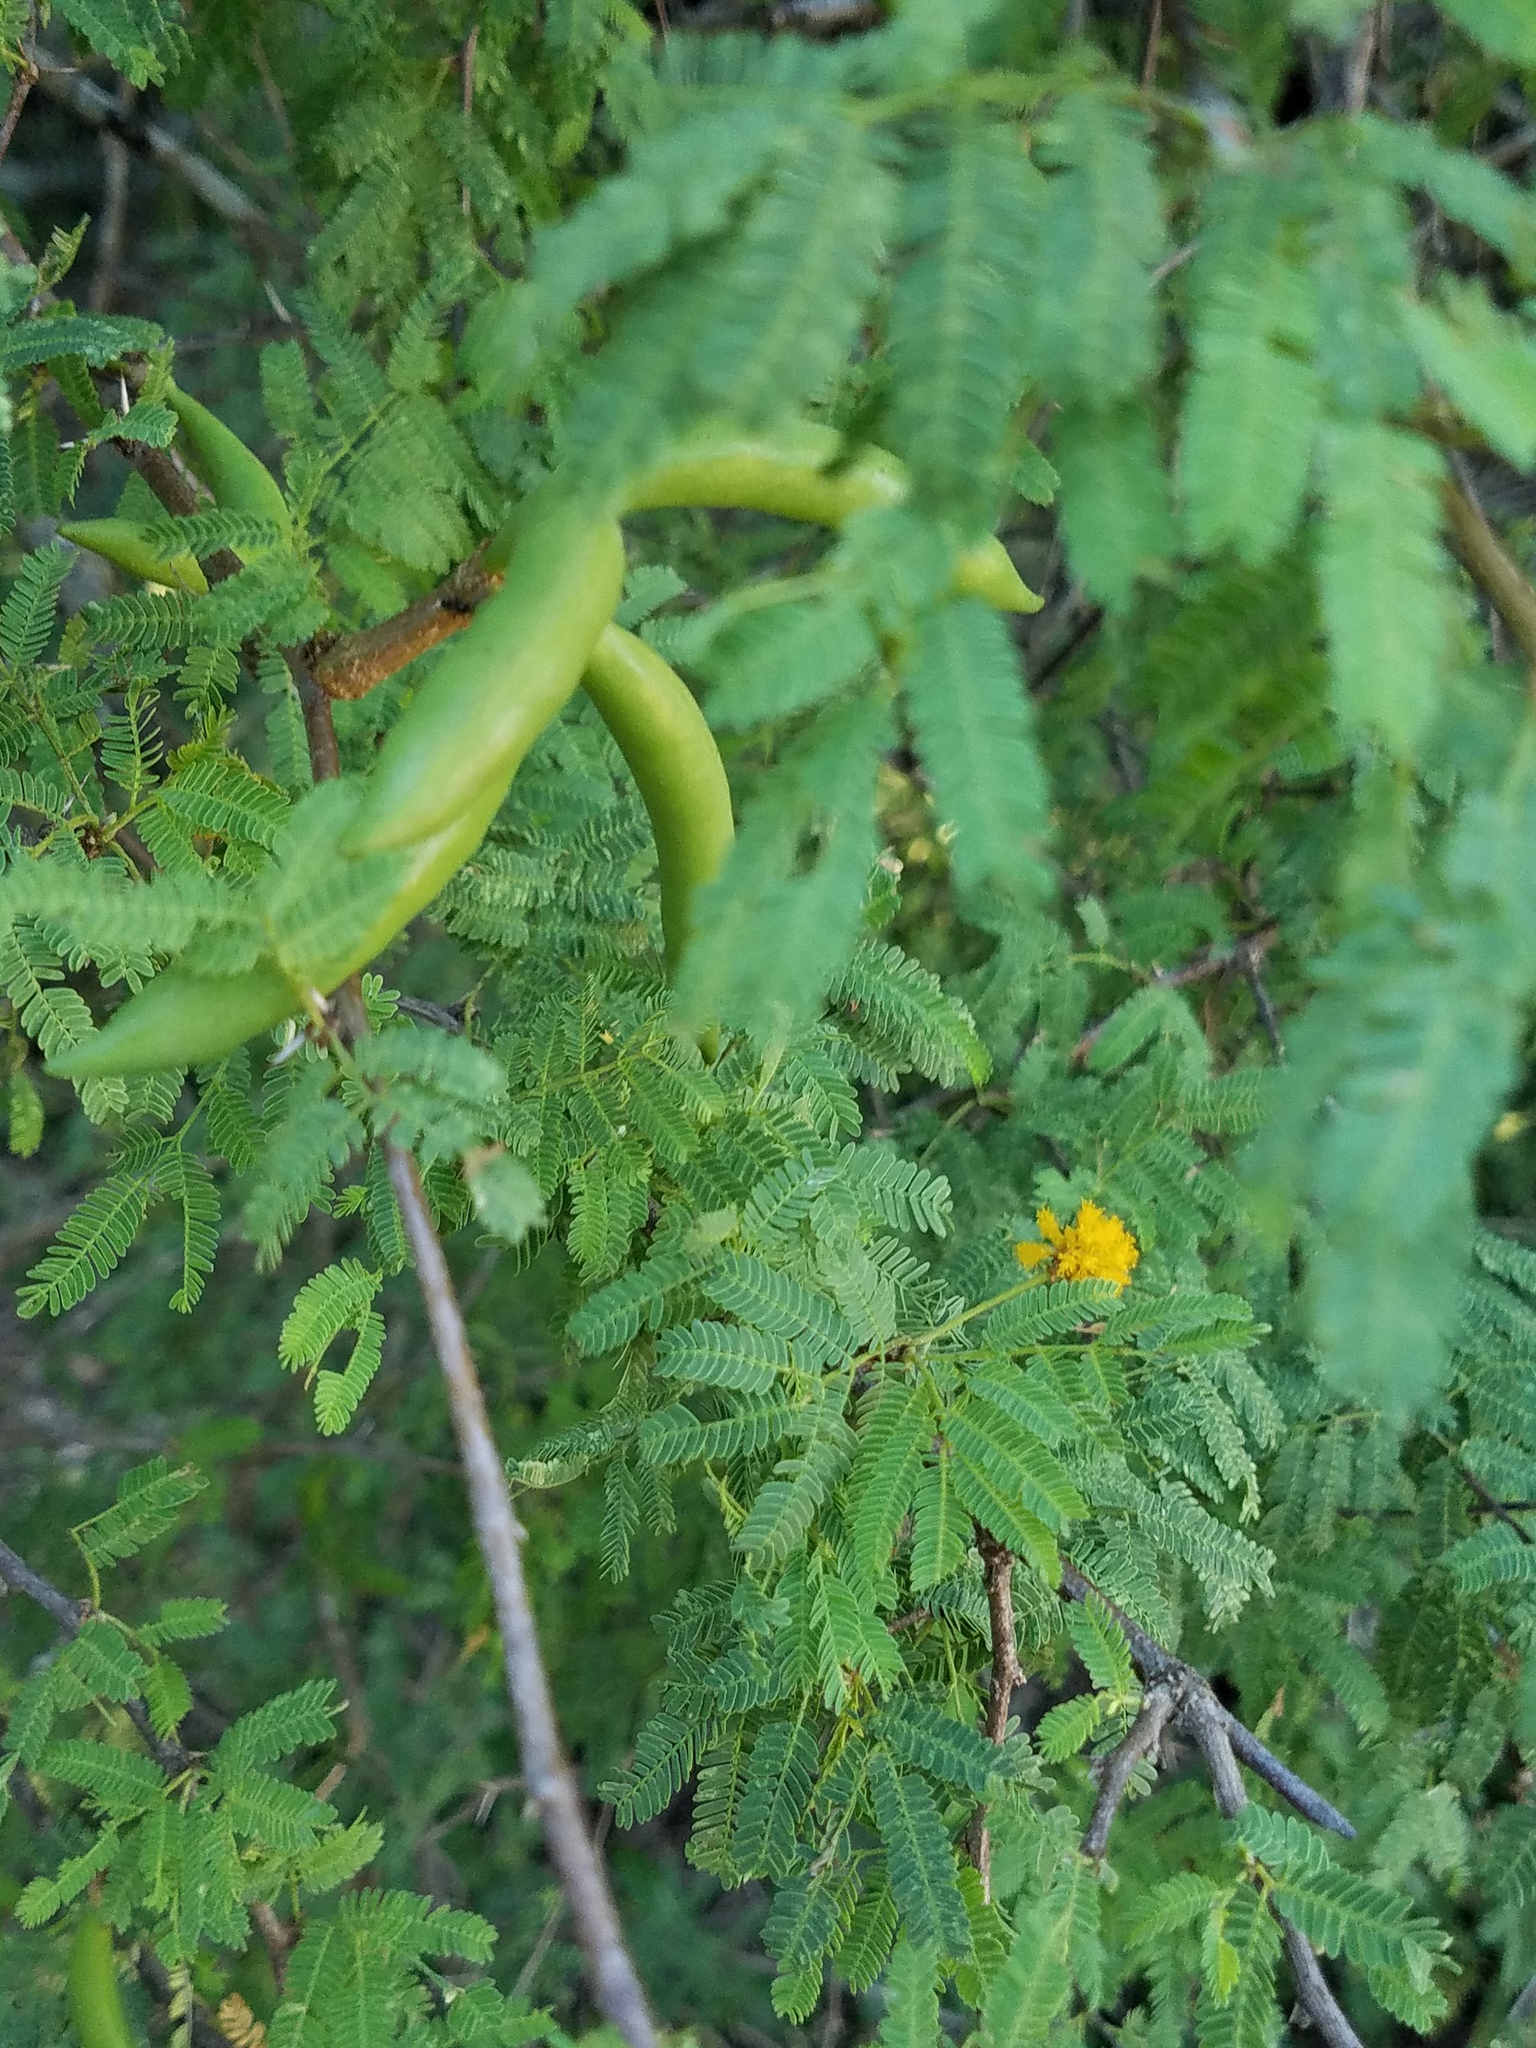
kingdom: Plantae
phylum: Tracheophyta
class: Magnoliopsida
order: Fabales
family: Fabaceae
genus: Vachellia
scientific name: Vachellia farnesiana
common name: Sweet acacia
